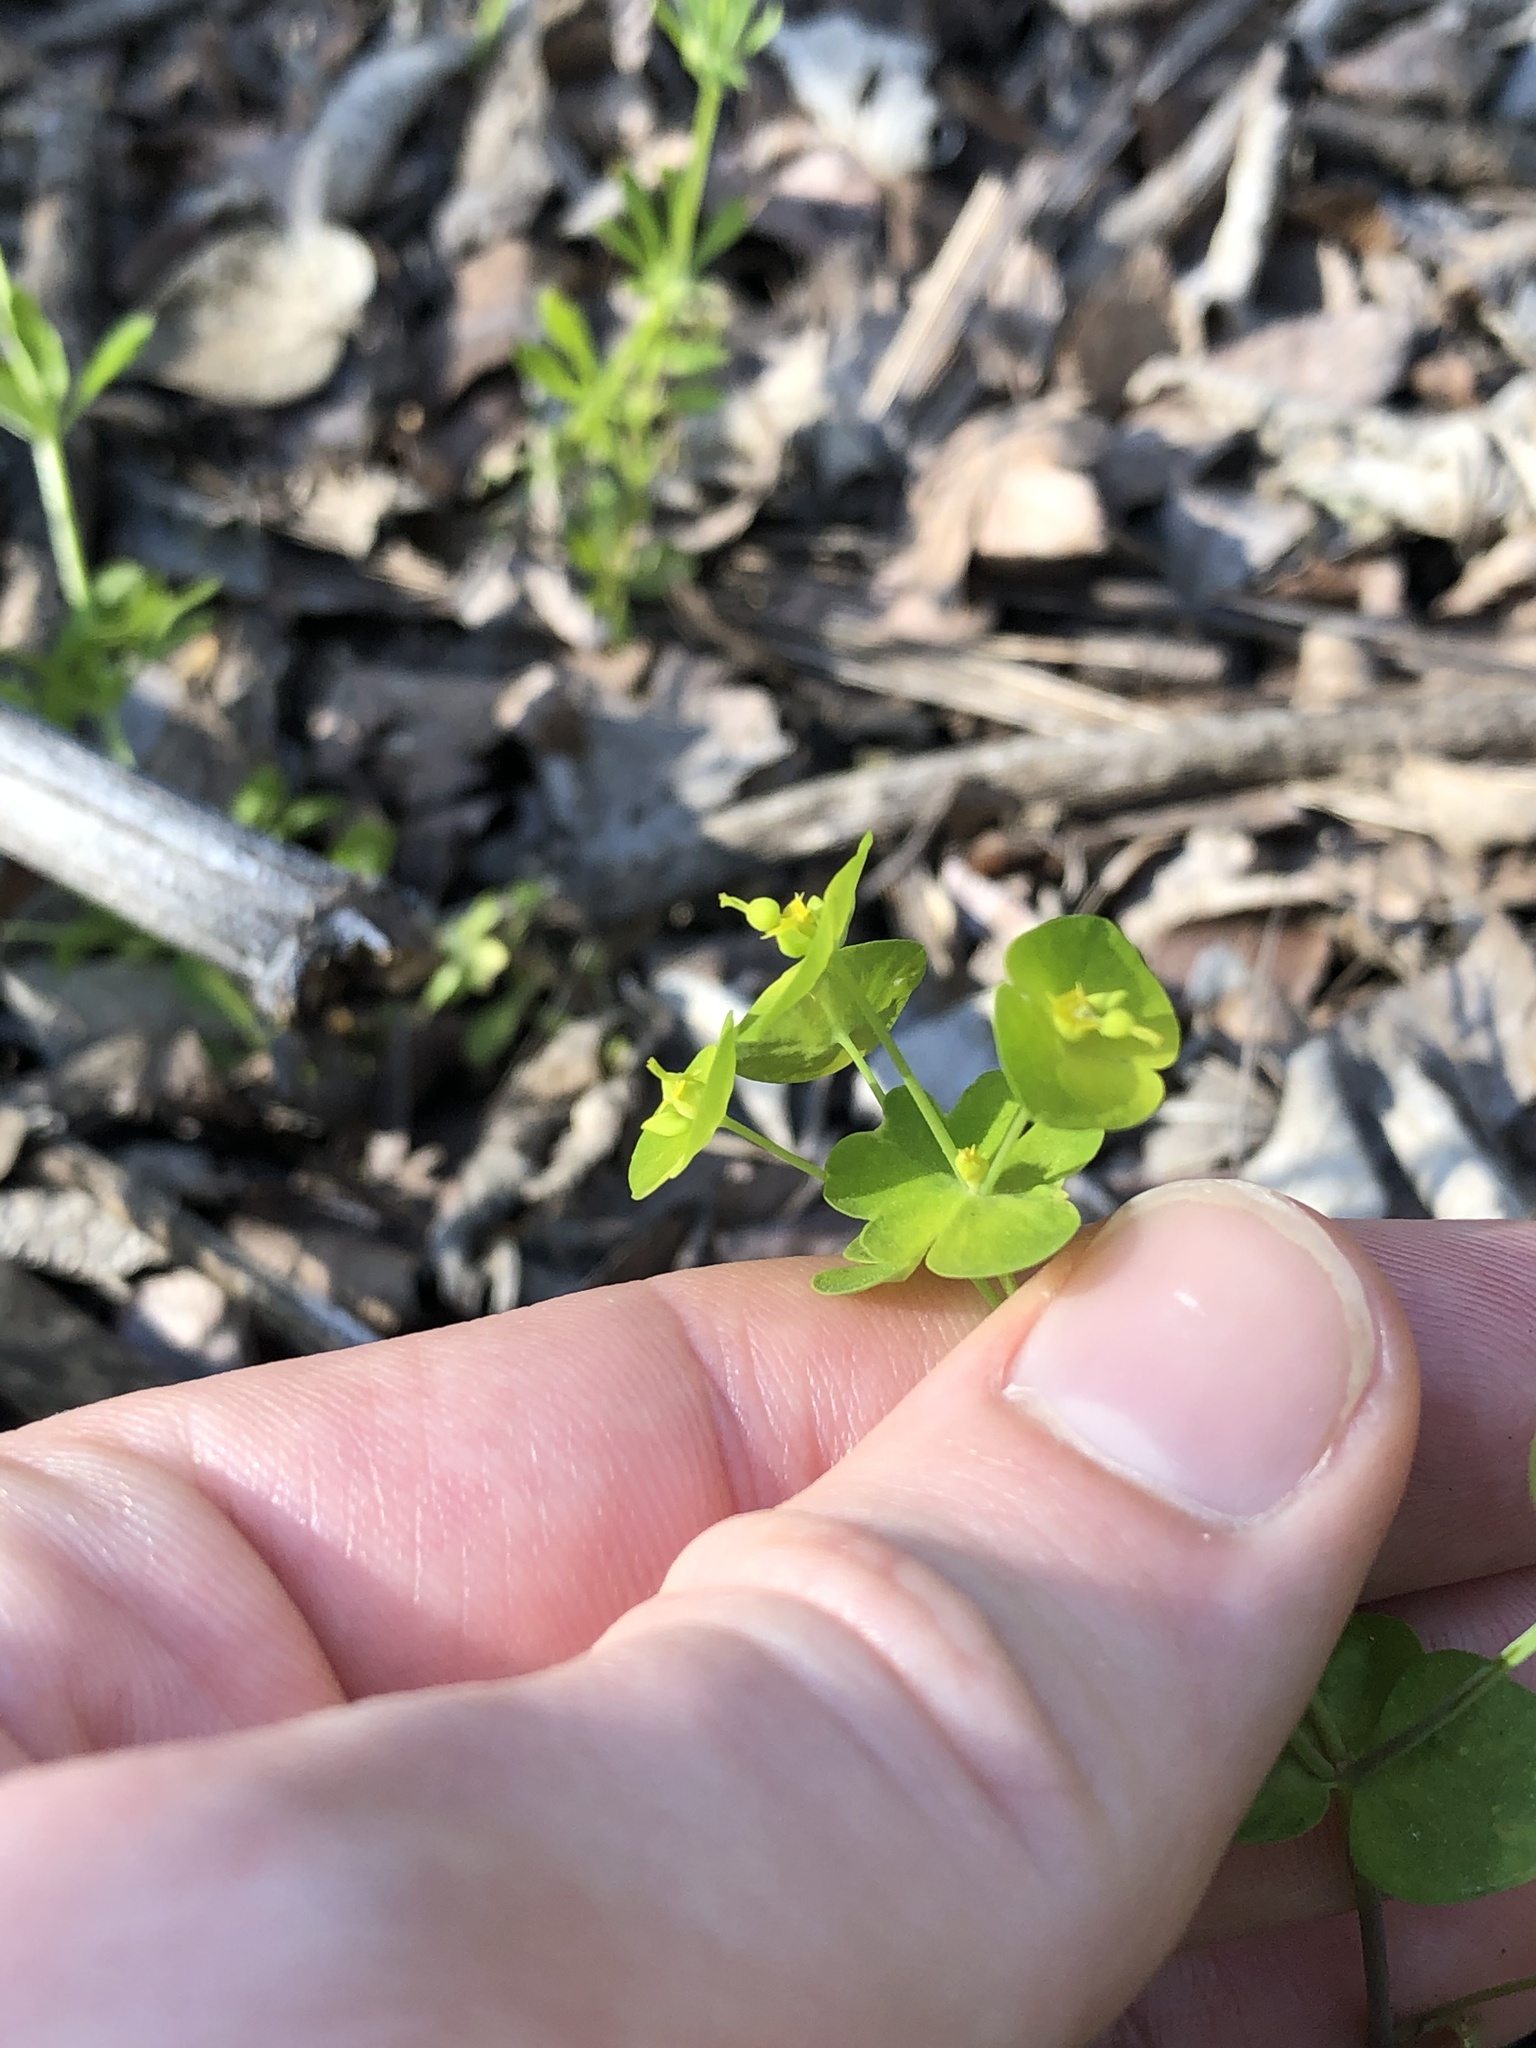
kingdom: Plantae
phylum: Tracheophyta
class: Magnoliopsida
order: Malpighiales
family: Euphorbiaceae
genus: Euphorbia
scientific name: Euphorbia roemeriana
